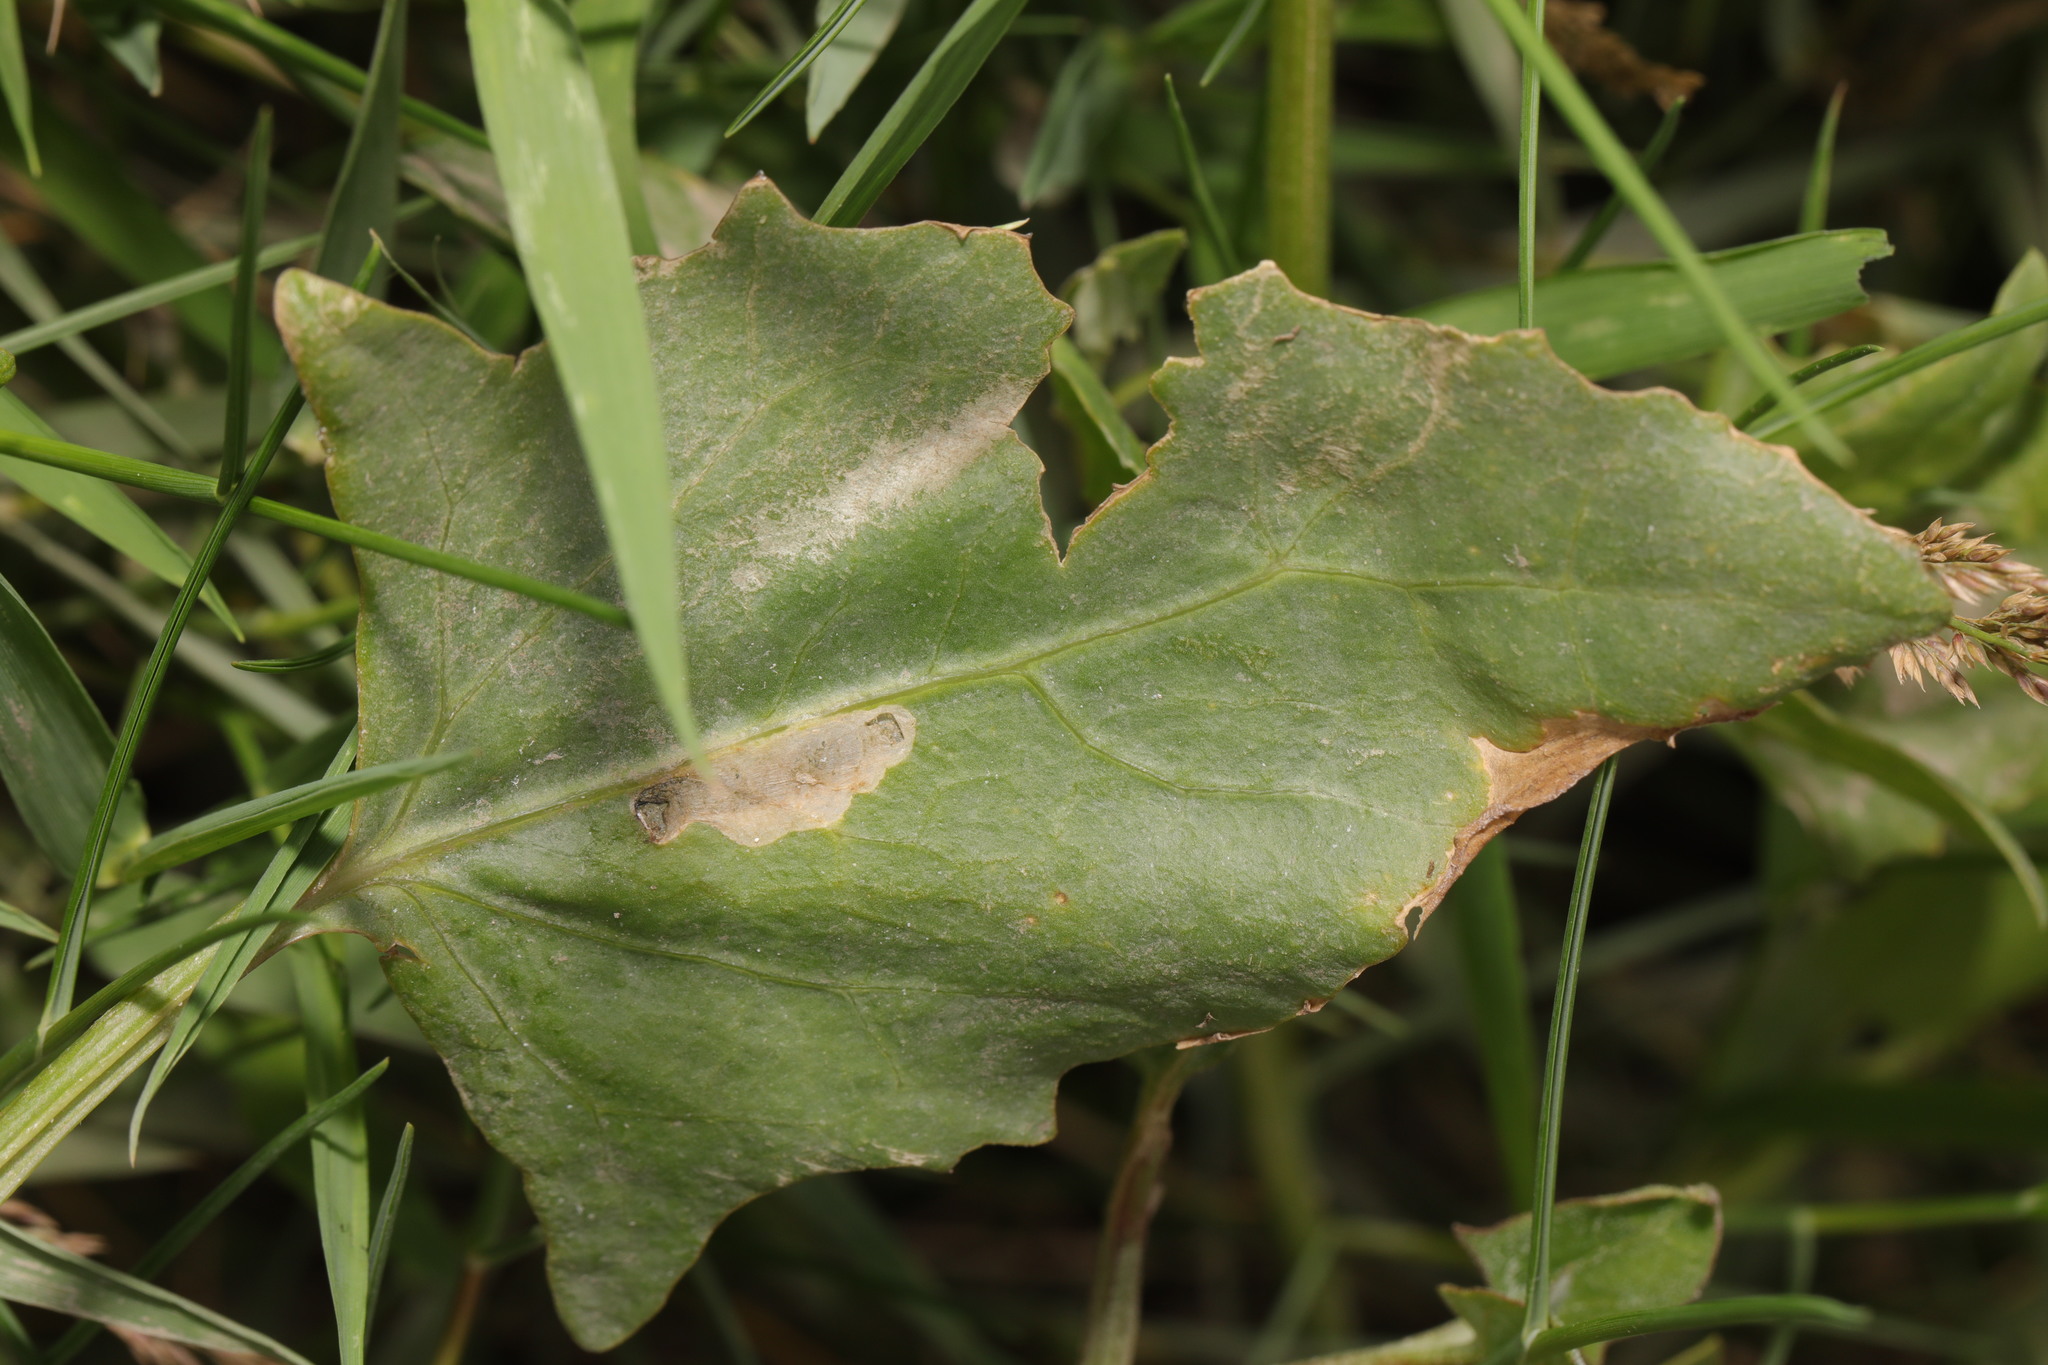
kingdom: Plantae
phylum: Tracheophyta
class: Magnoliopsida
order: Caryophyllales
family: Amaranthaceae
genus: Atriplex
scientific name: Atriplex prostrata
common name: Spear-leaved orache
